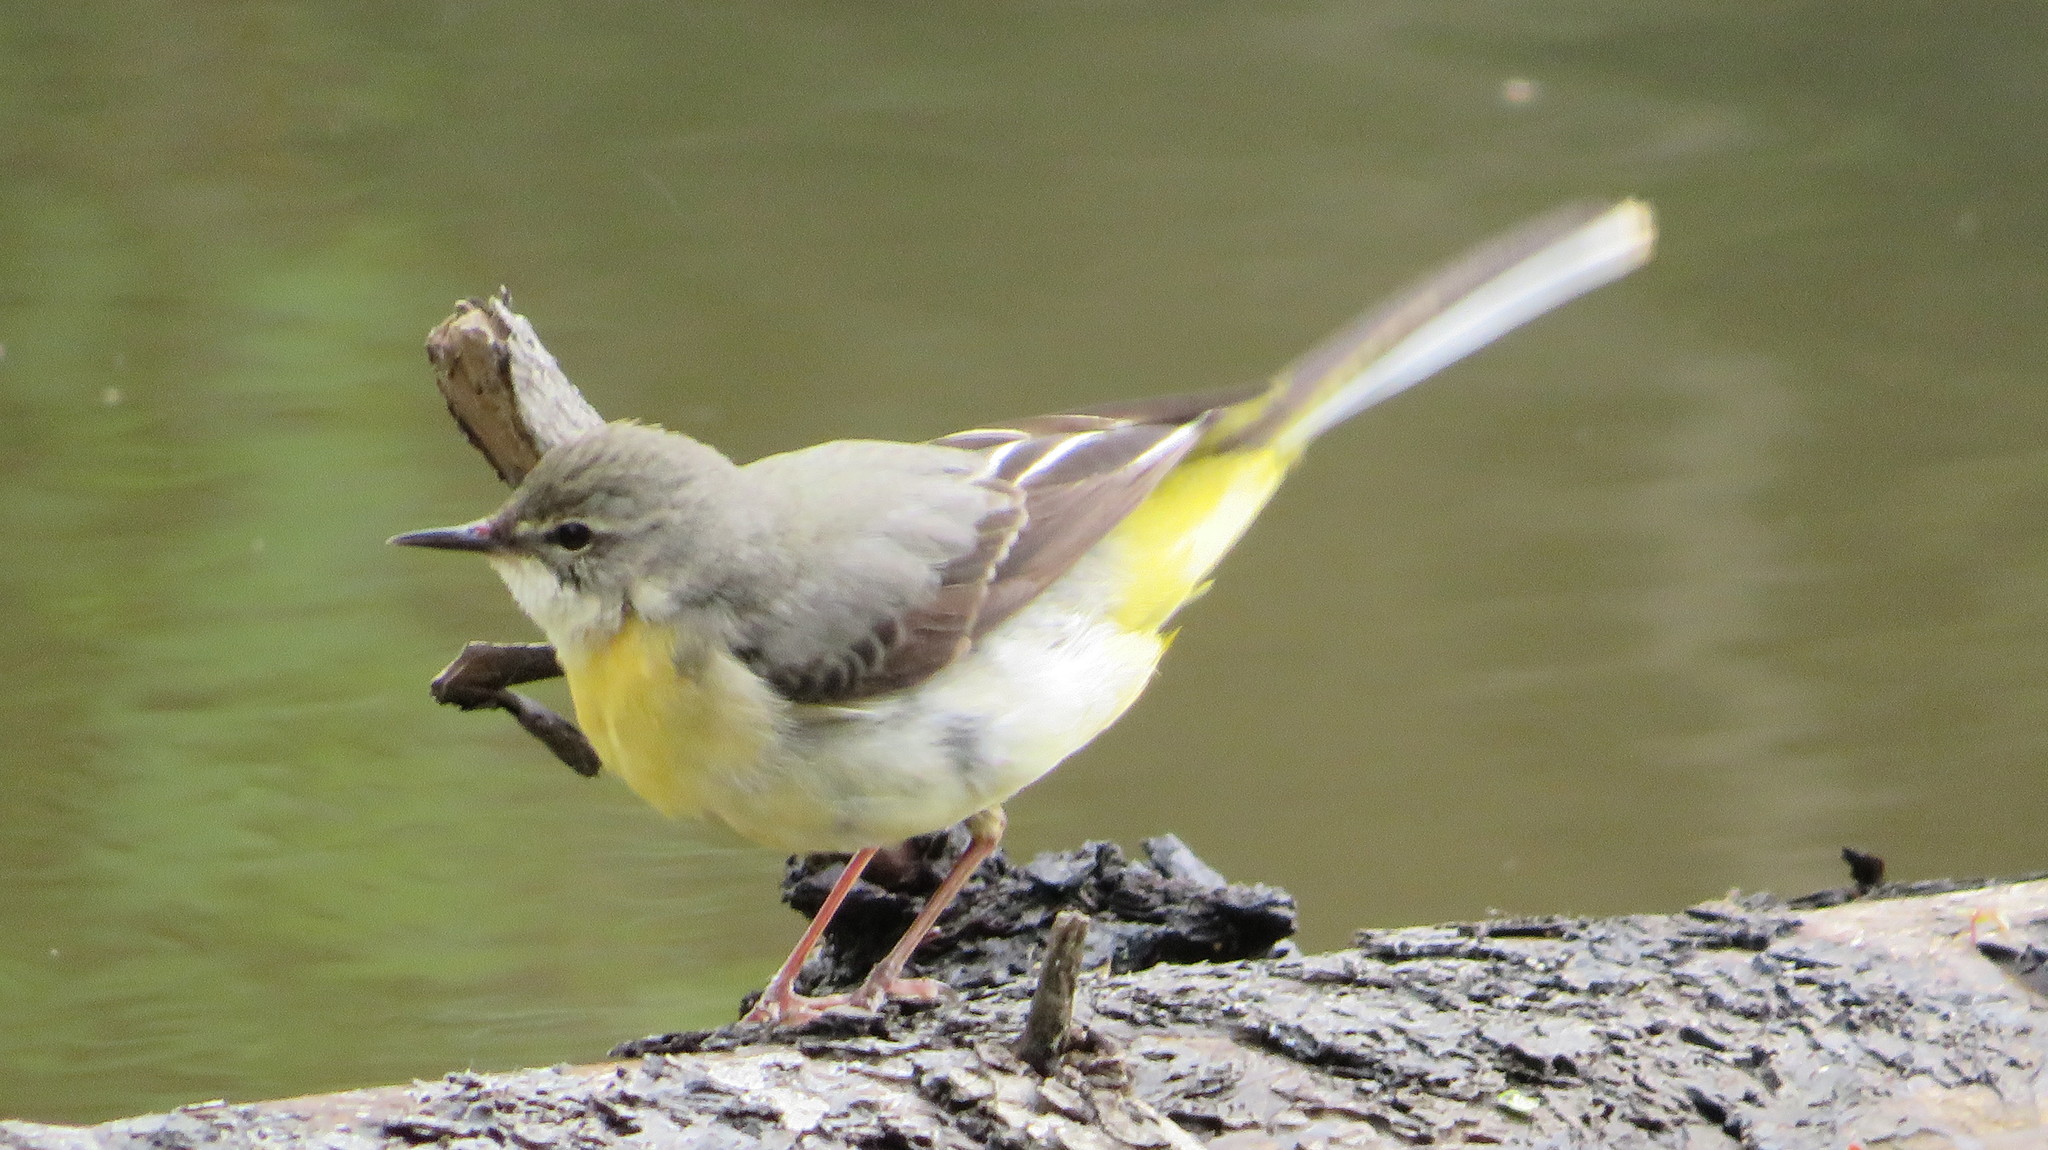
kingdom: Animalia
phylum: Chordata
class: Aves
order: Passeriformes
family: Motacillidae
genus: Motacilla
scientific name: Motacilla cinerea
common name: Grey wagtail
